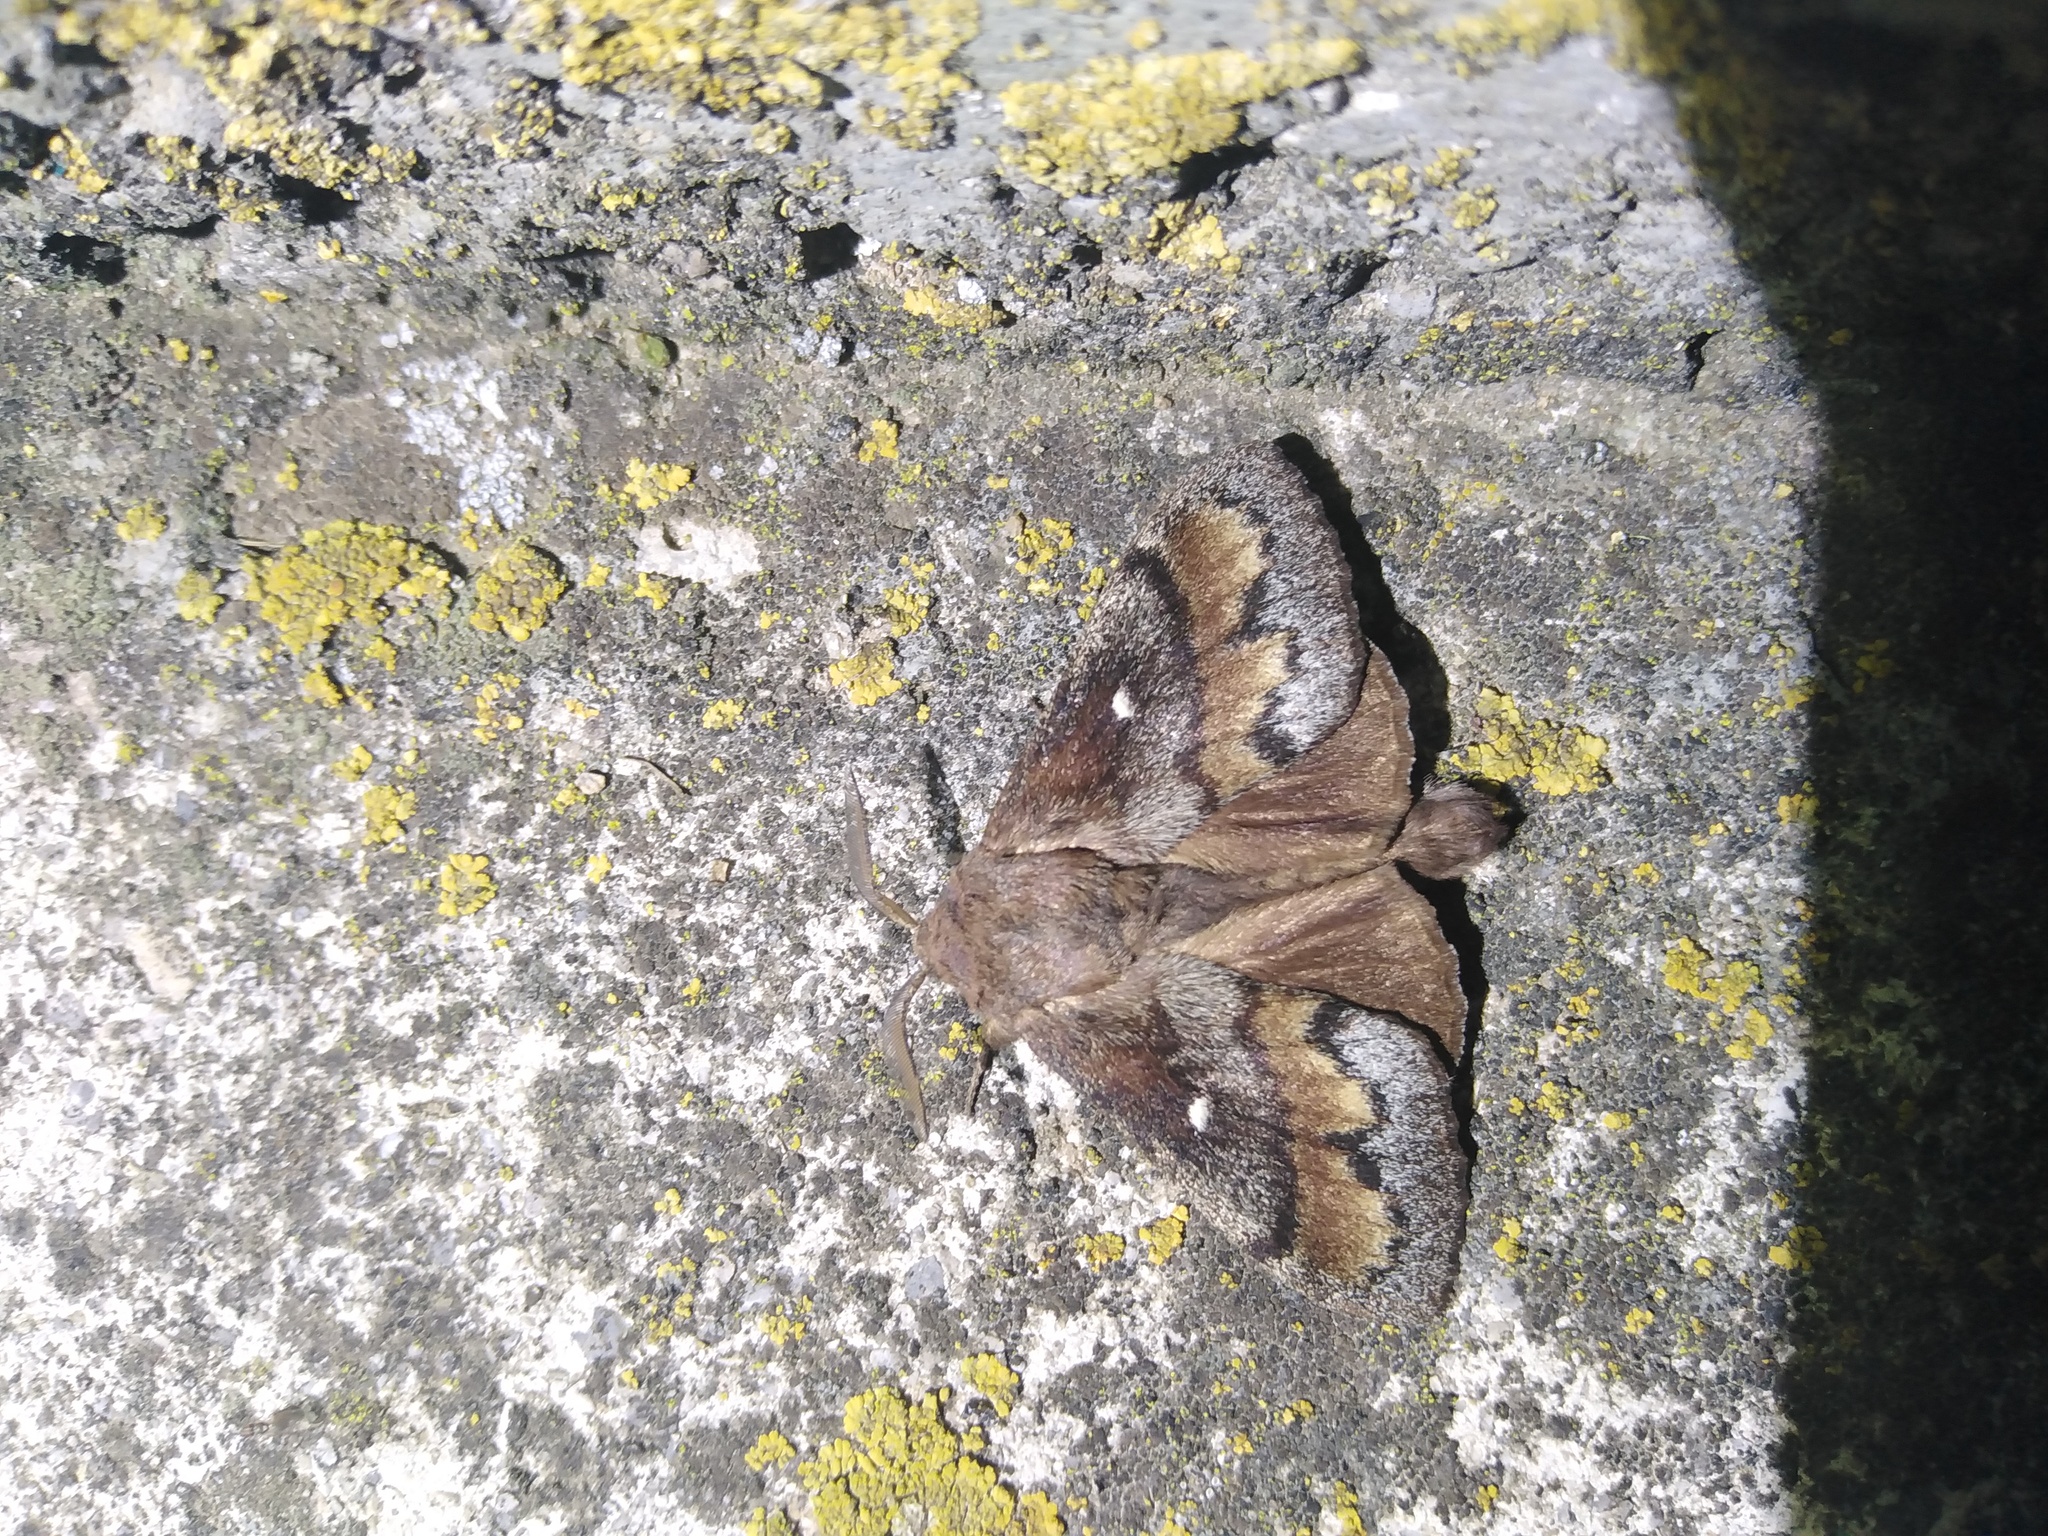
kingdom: Animalia
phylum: Arthropoda
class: Insecta
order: Lepidoptera
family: Lasiocampidae
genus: Dendrolimus
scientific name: Dendrolimus pini
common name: Pine-tree lappet
